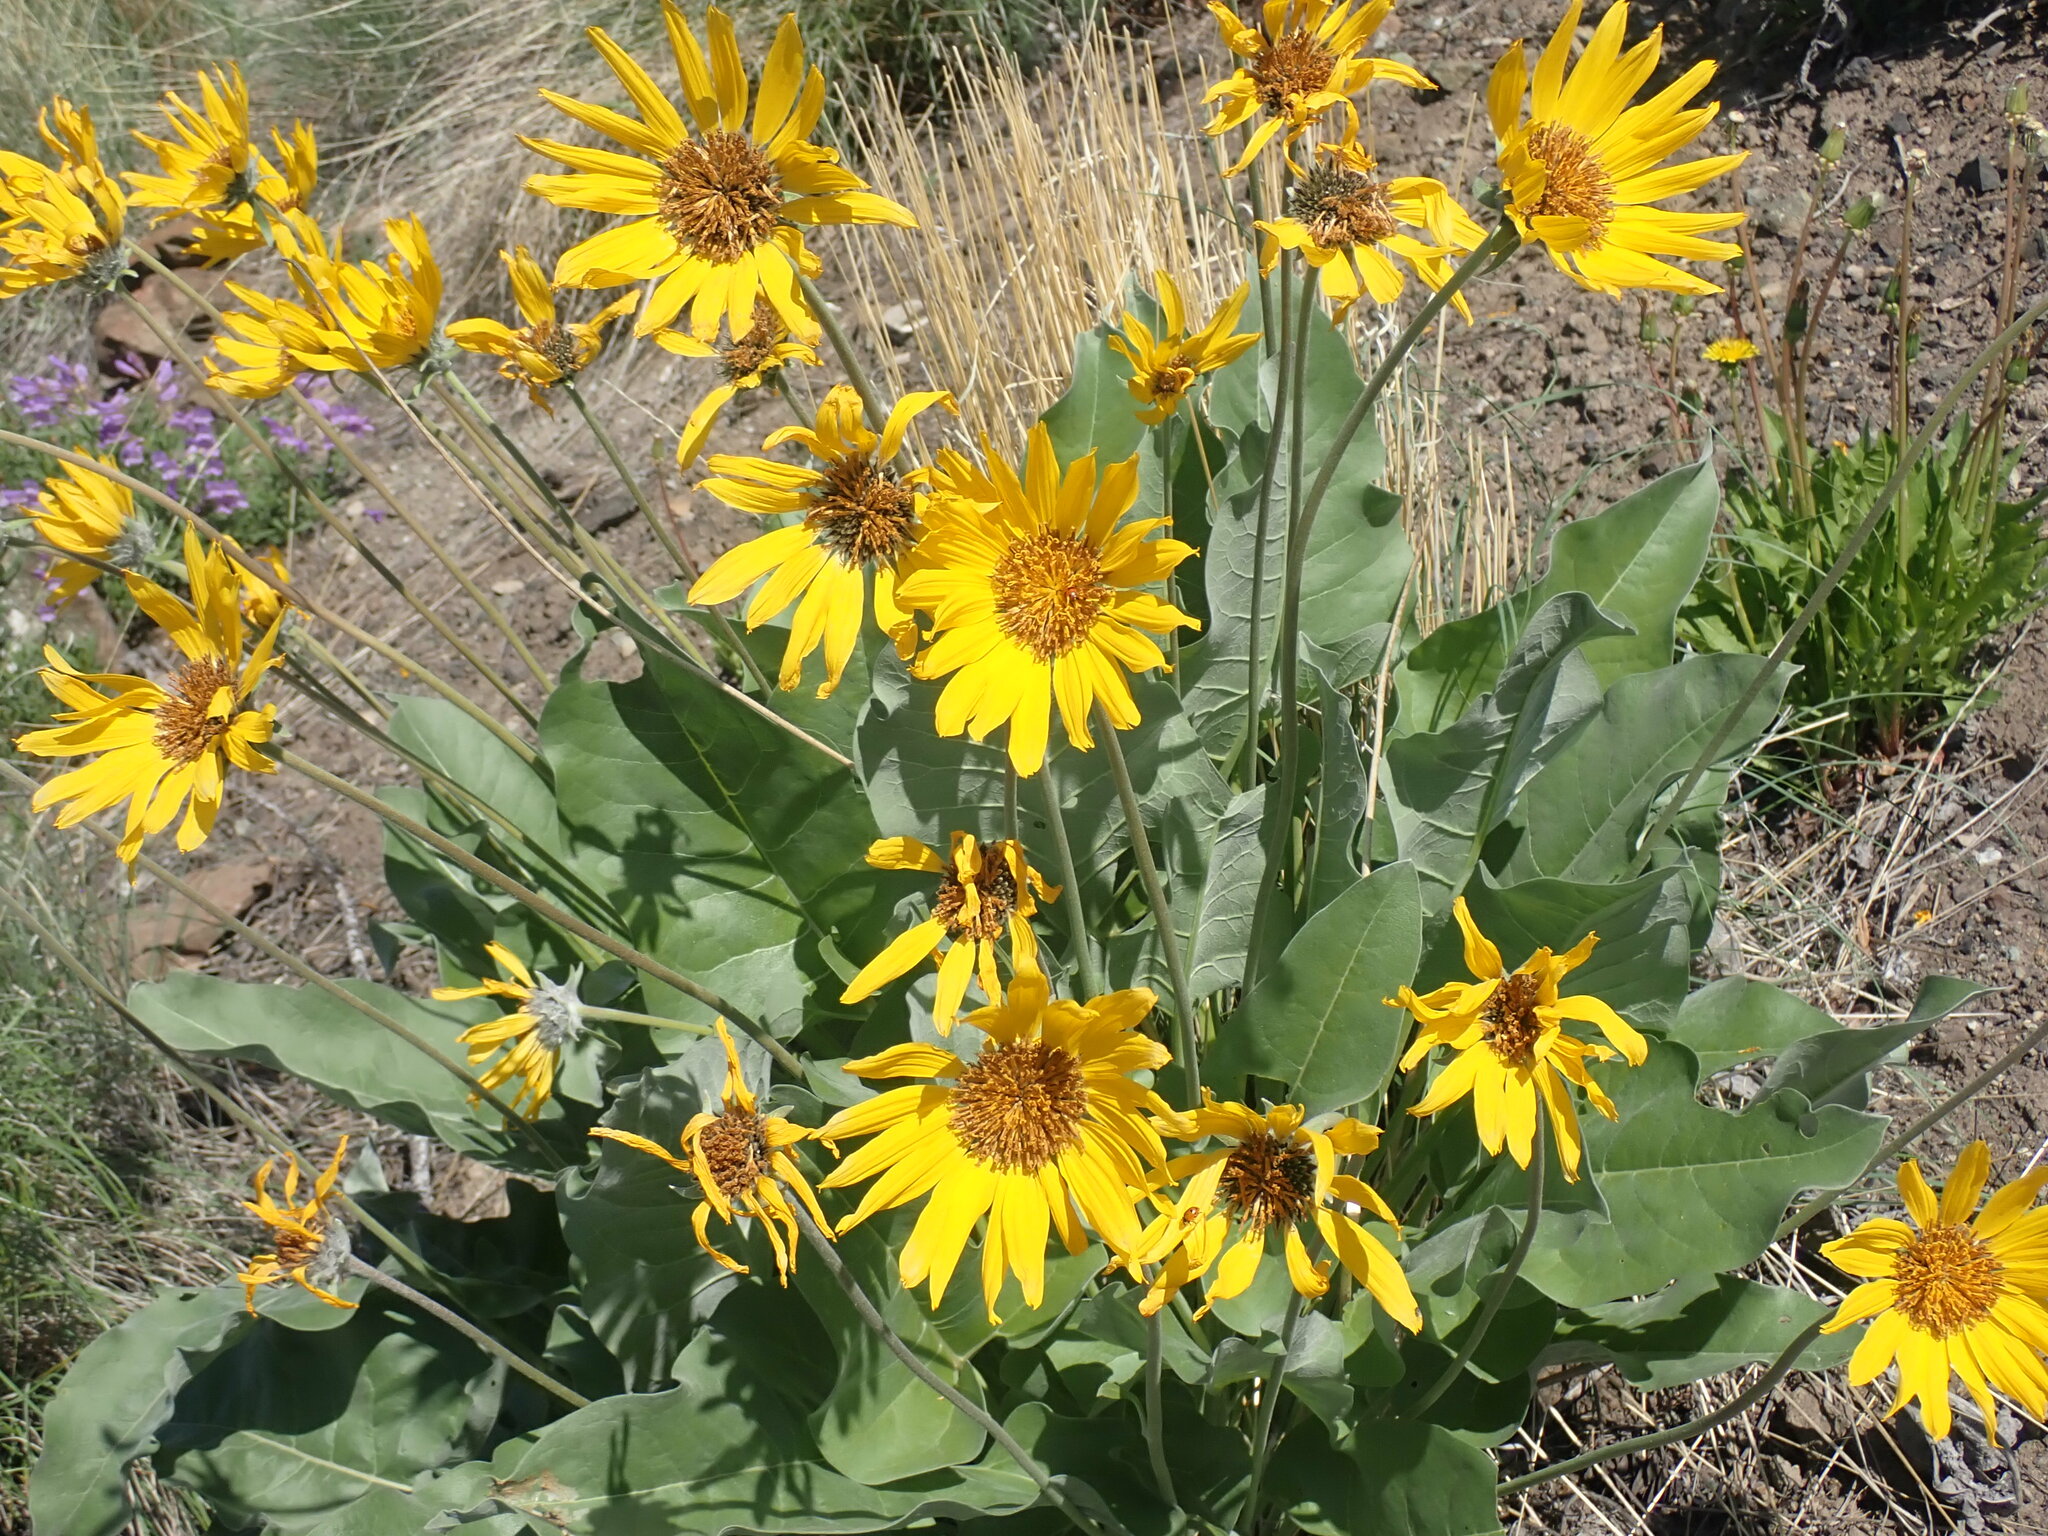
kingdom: Plantae
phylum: Tracheophyta
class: Magnoliopsida
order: Asterales
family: Asteraceae
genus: Wyethia
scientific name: Wyethia sagittata
